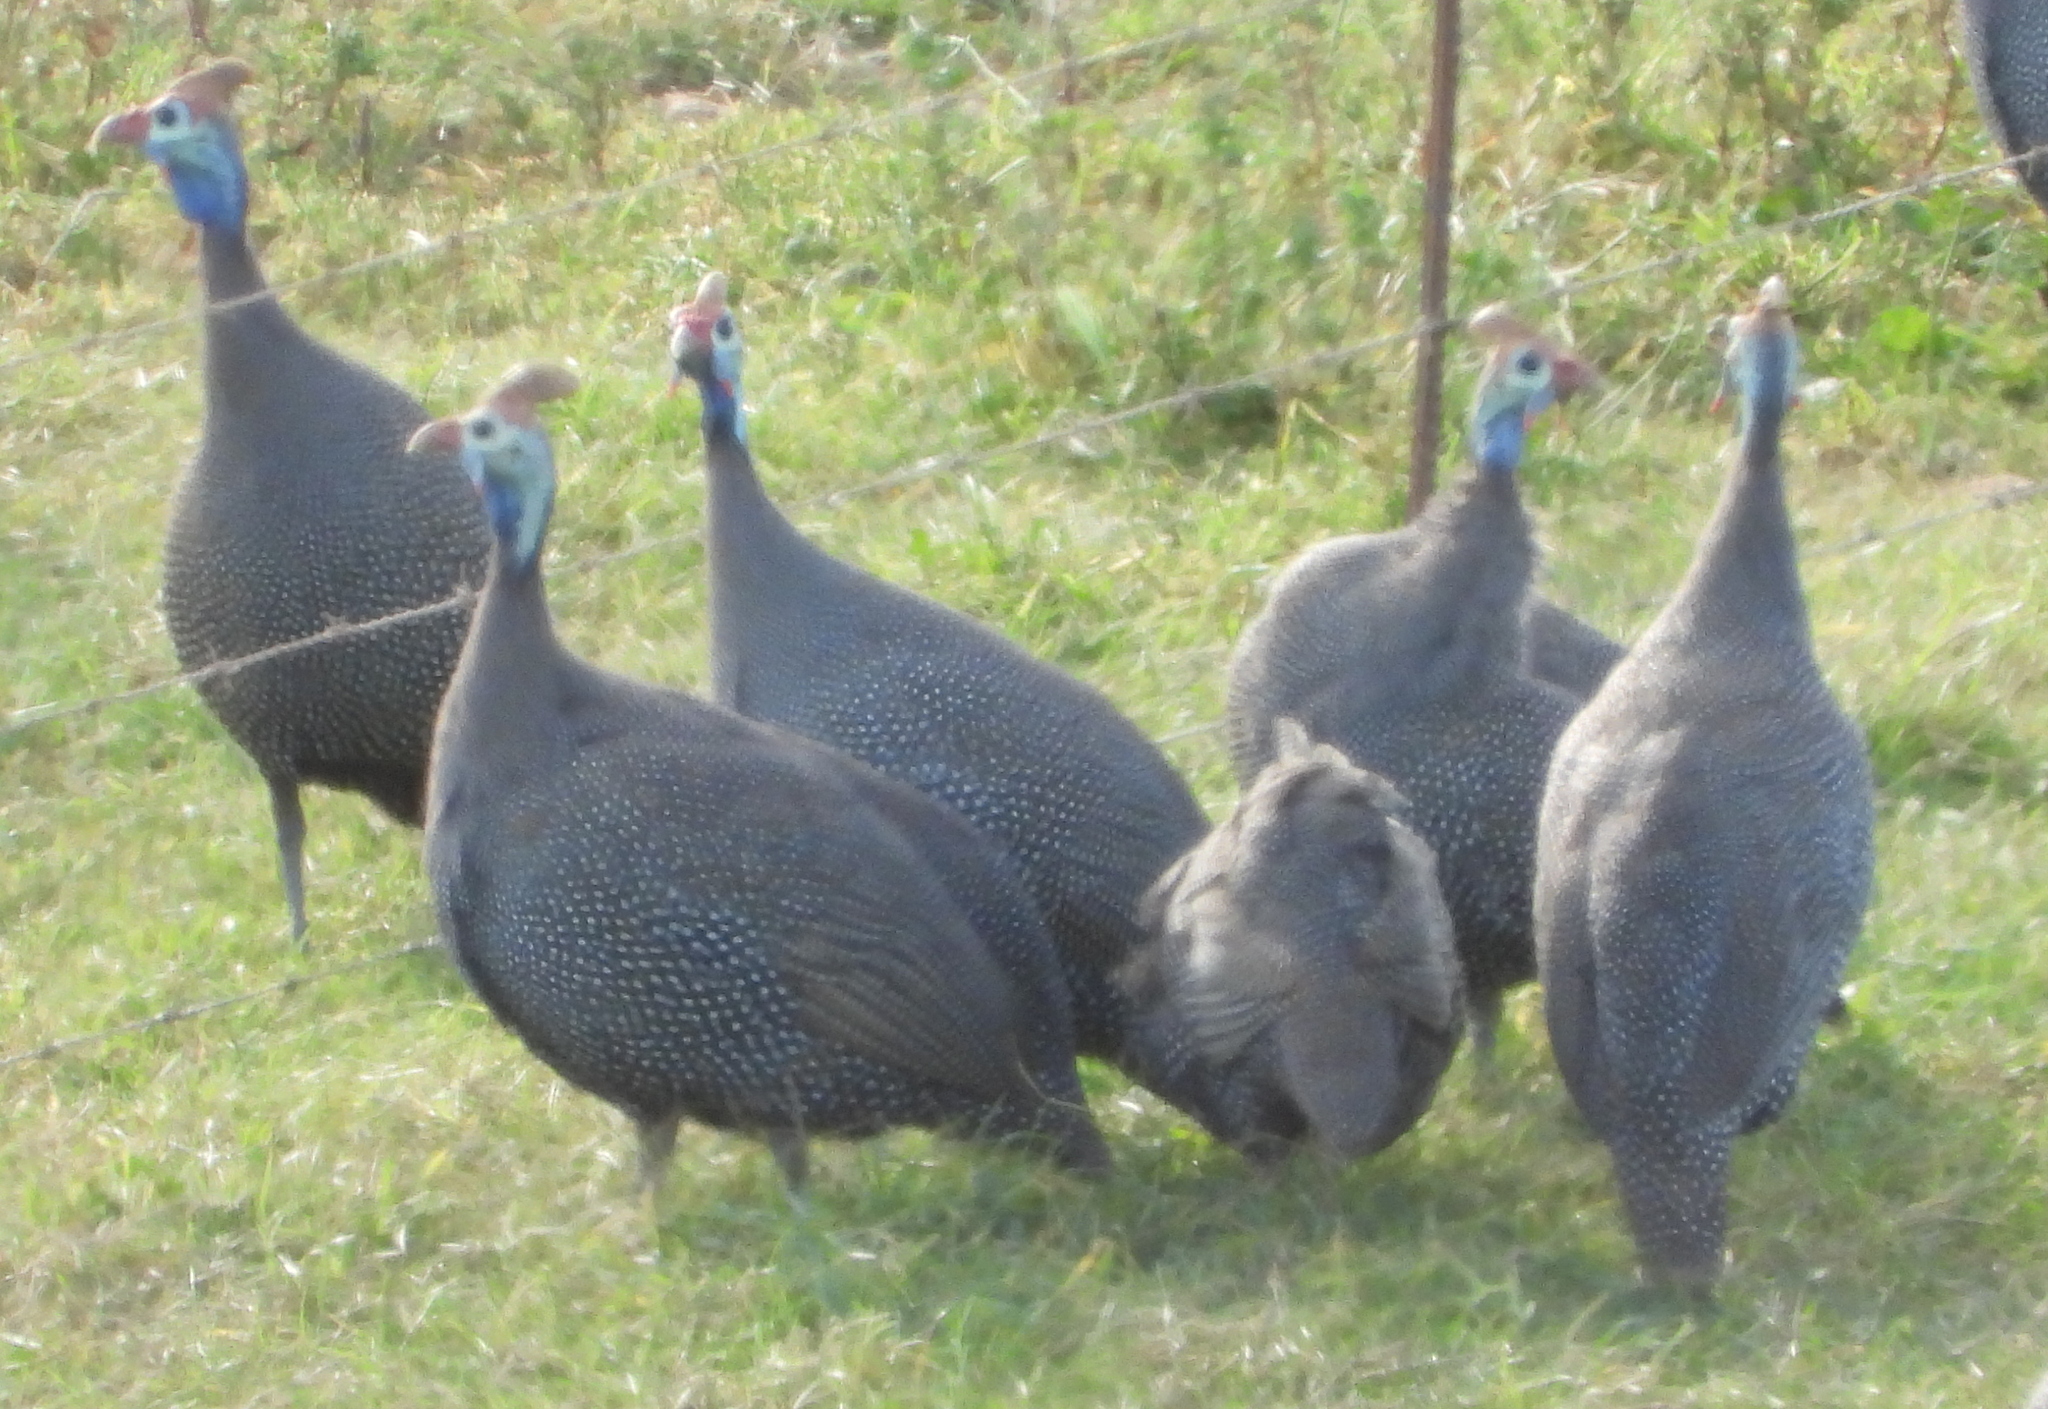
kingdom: Animalia
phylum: Chordata
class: Aves
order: Galliformes
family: Numididae
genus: Numida
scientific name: Numida meleagris
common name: Helmeted guineafowl
